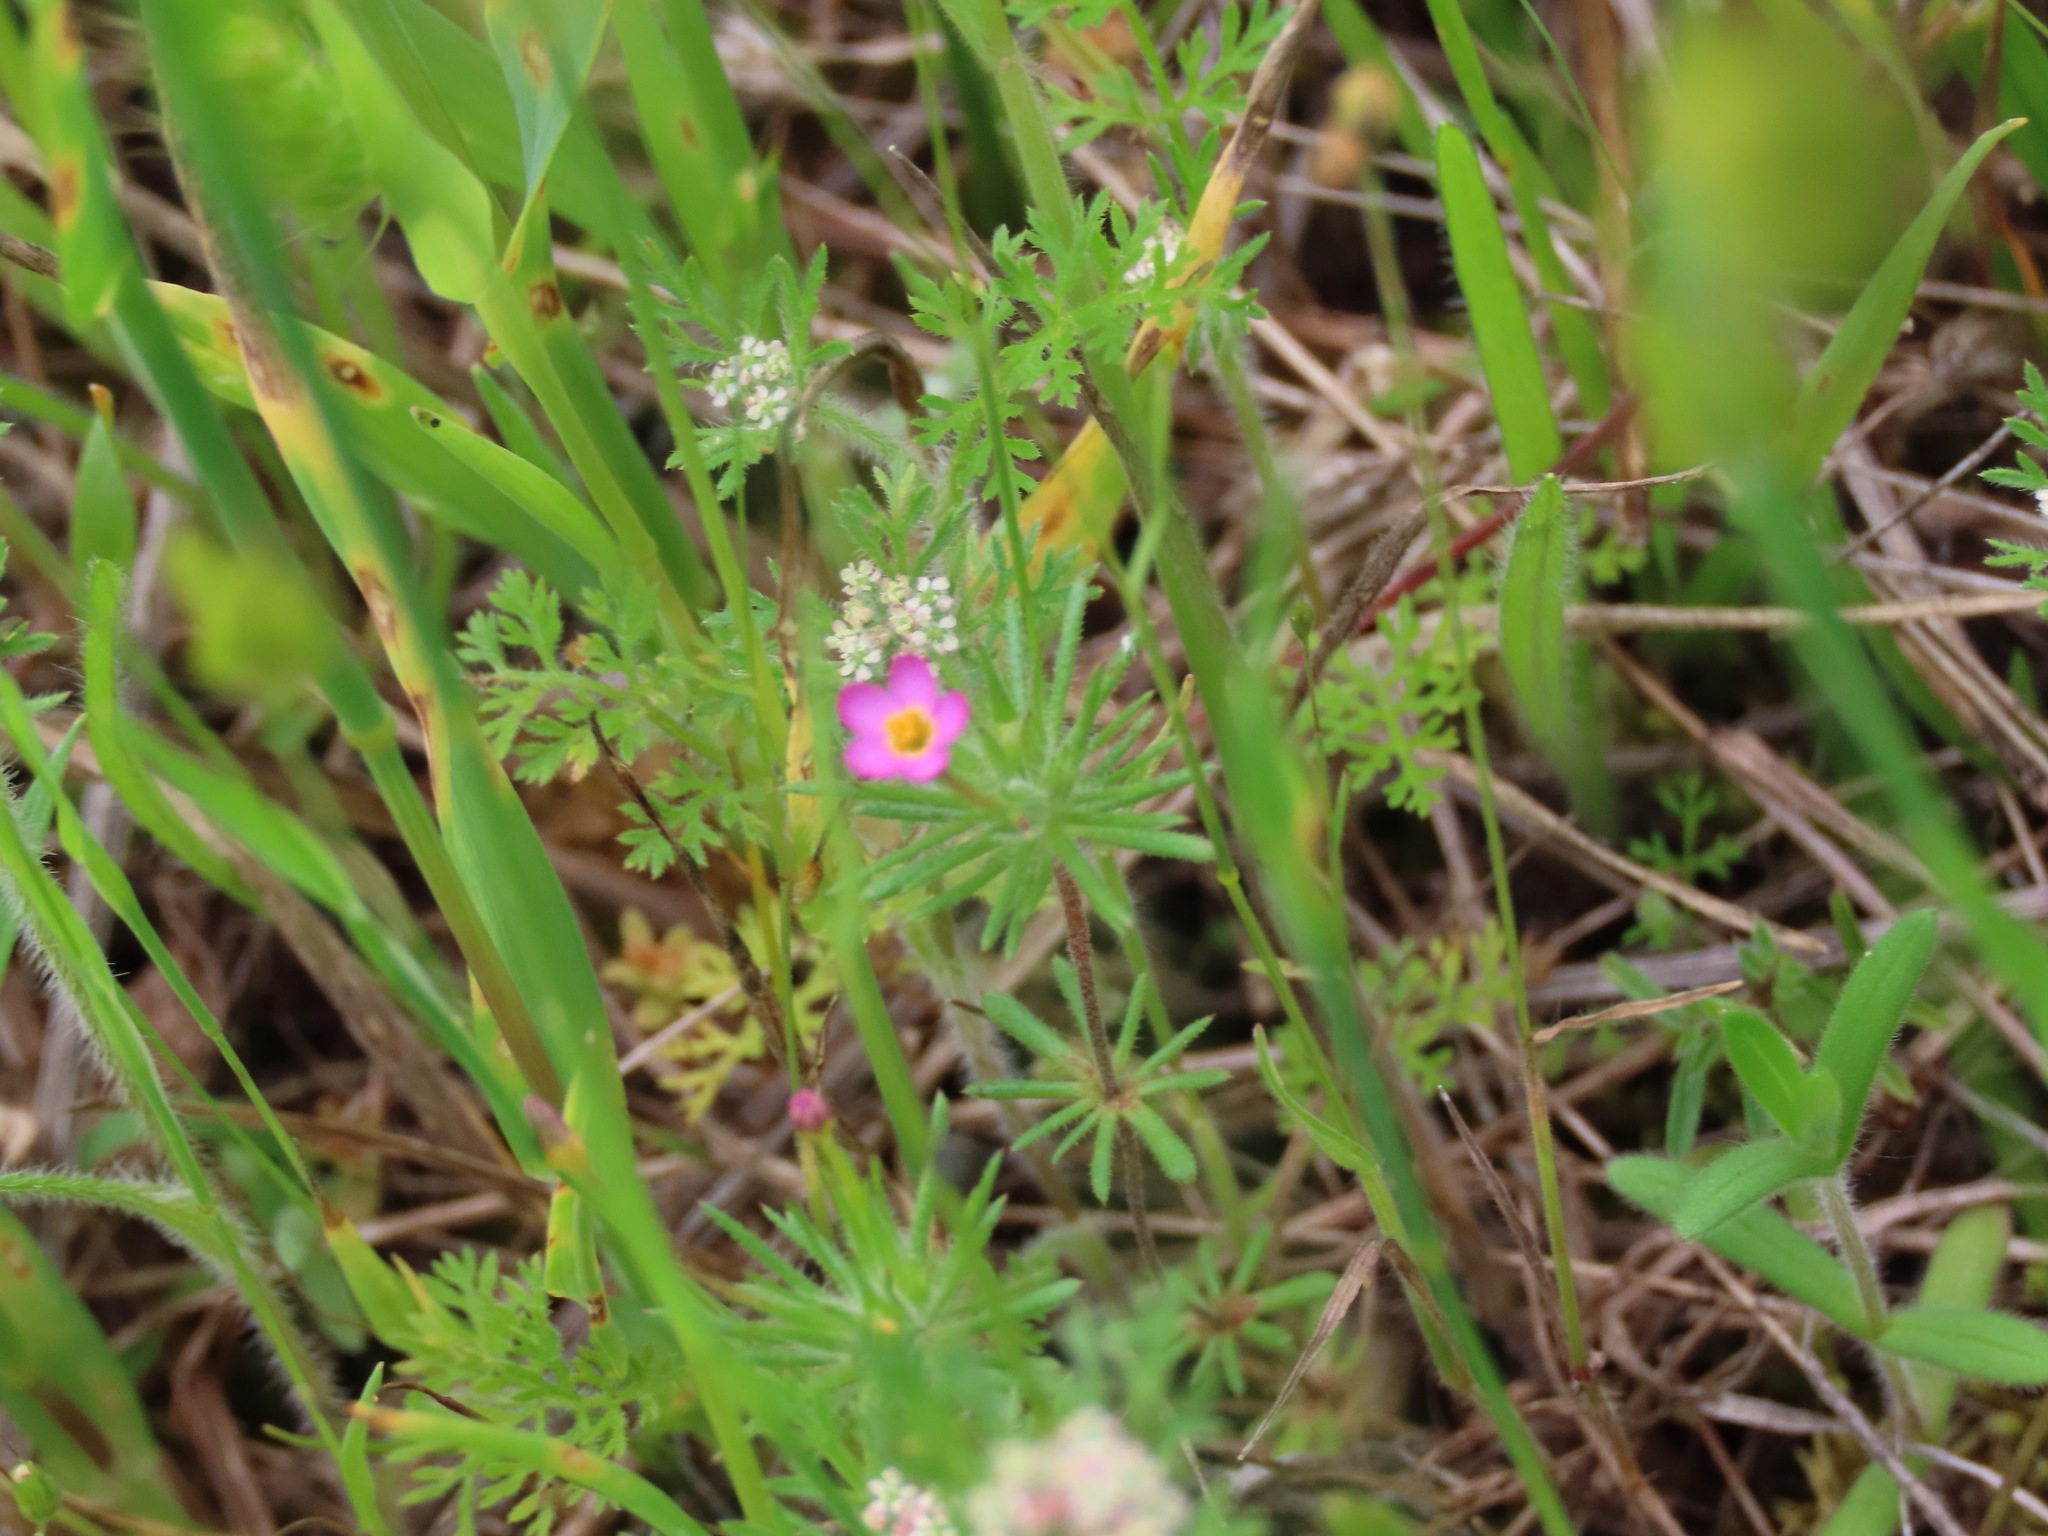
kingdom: Plantae
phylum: Tracheophyta
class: Magnoliopsida
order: Ericales
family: Polemoniaceae
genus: Leptosiphon
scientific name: Leptosiphon bicolor
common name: True babystars
